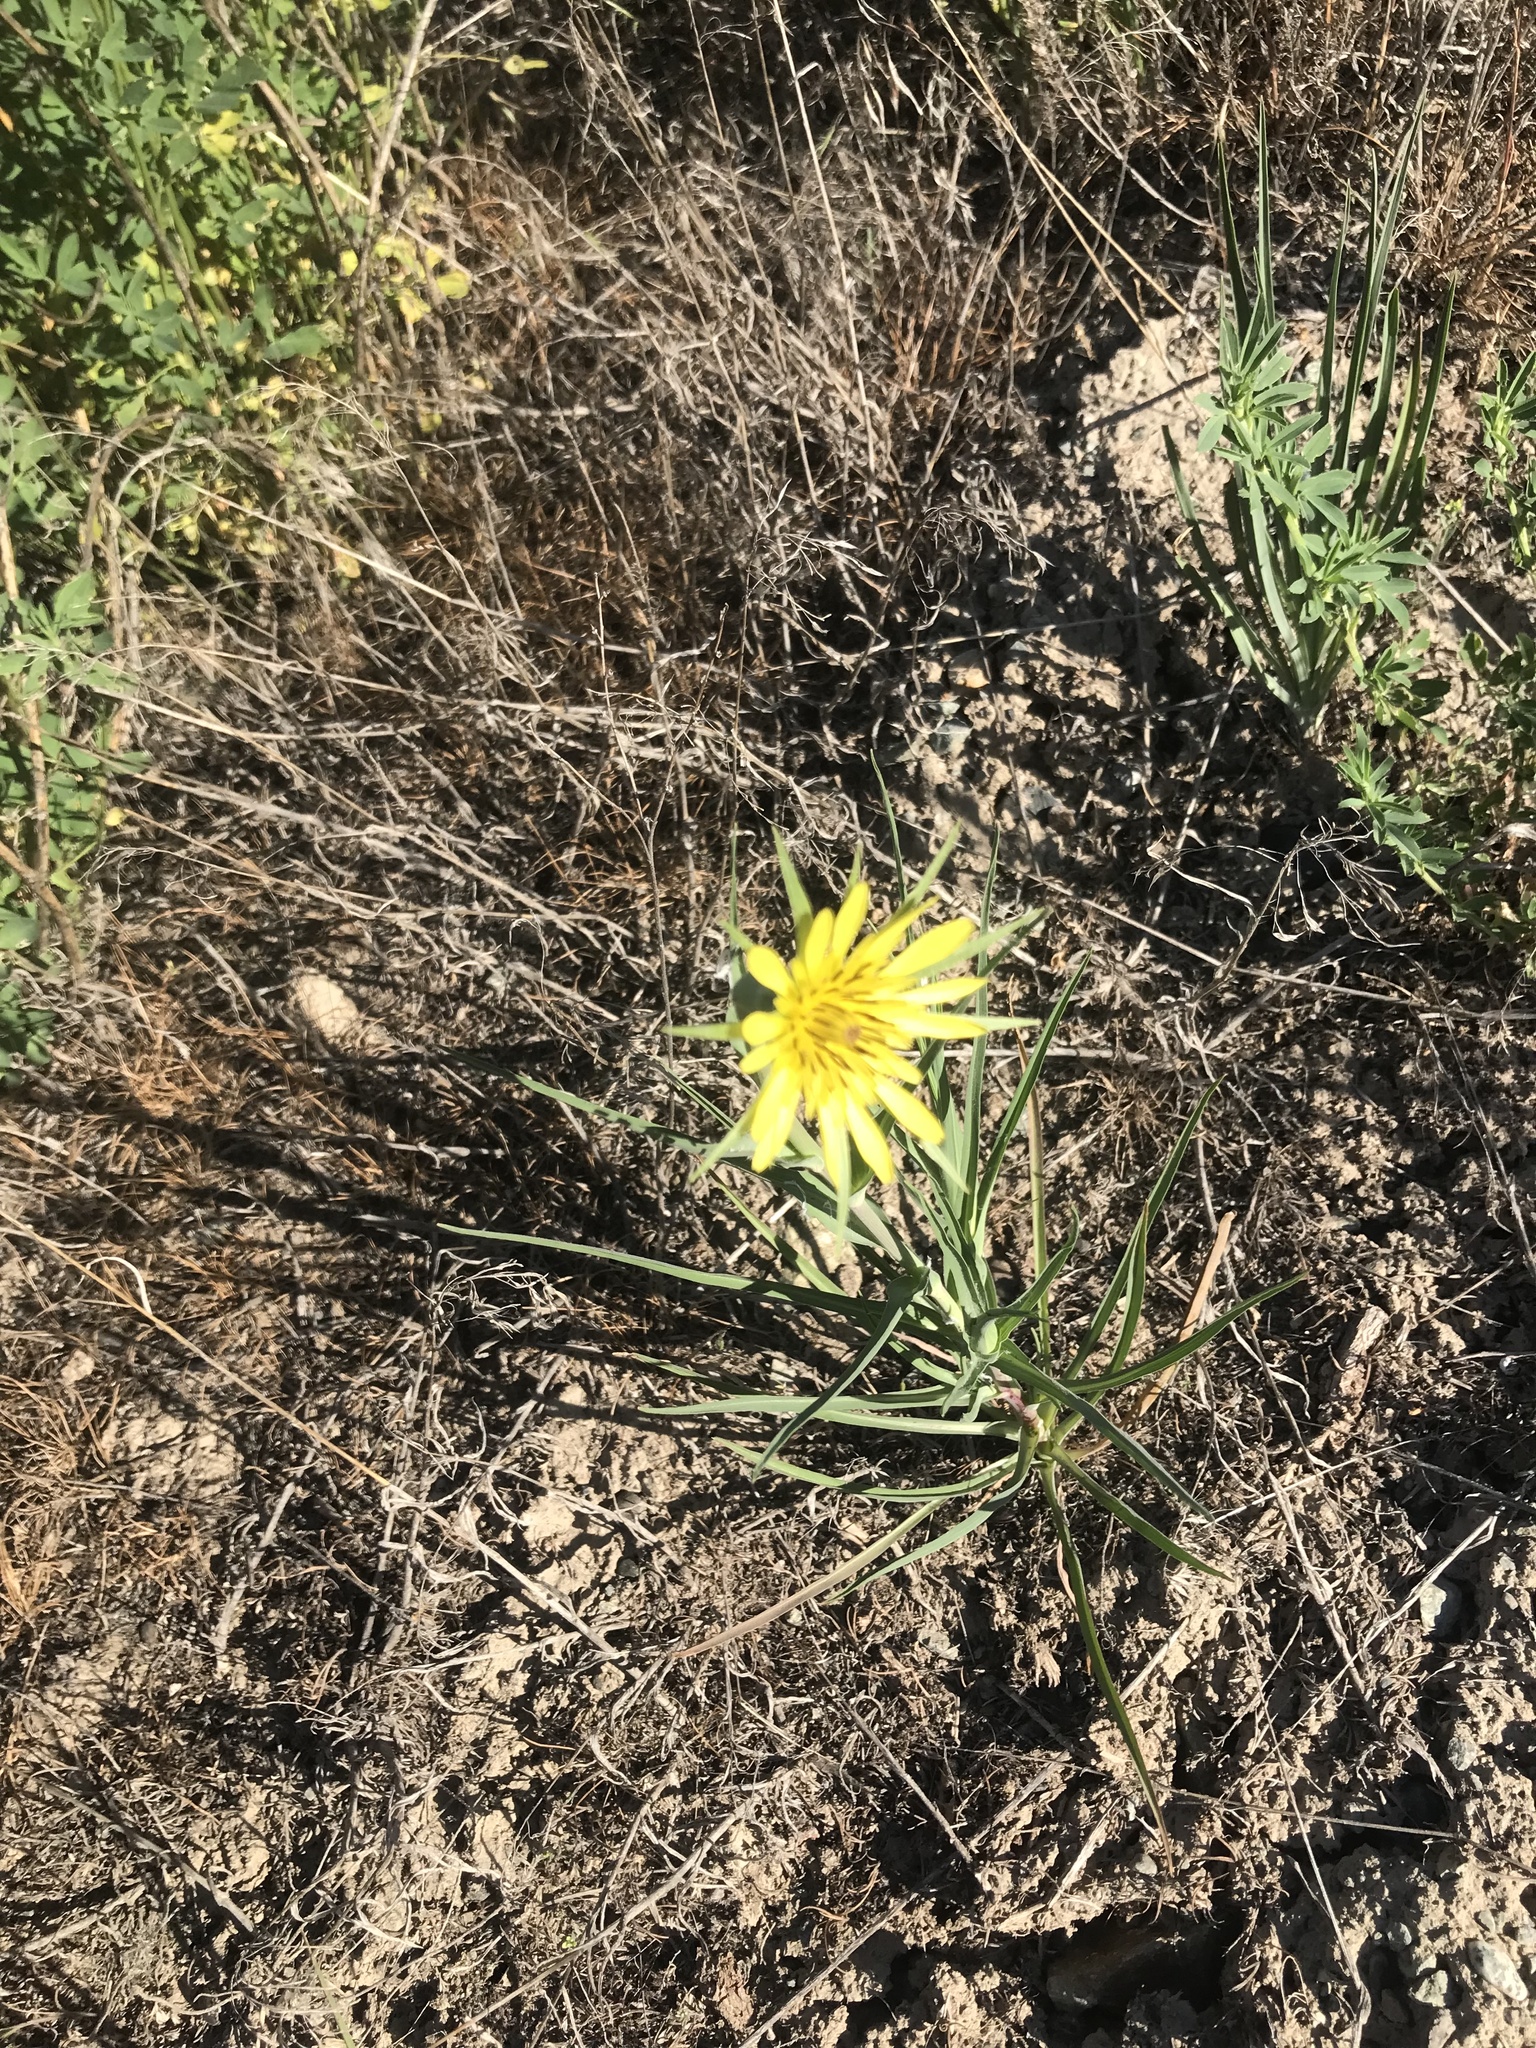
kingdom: Plantae
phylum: Tracheophyta
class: Magnoliopsida
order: Asterales
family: Asteraceae
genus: Tragopogon
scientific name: Tragopogon dubius
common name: Yellow salsify
